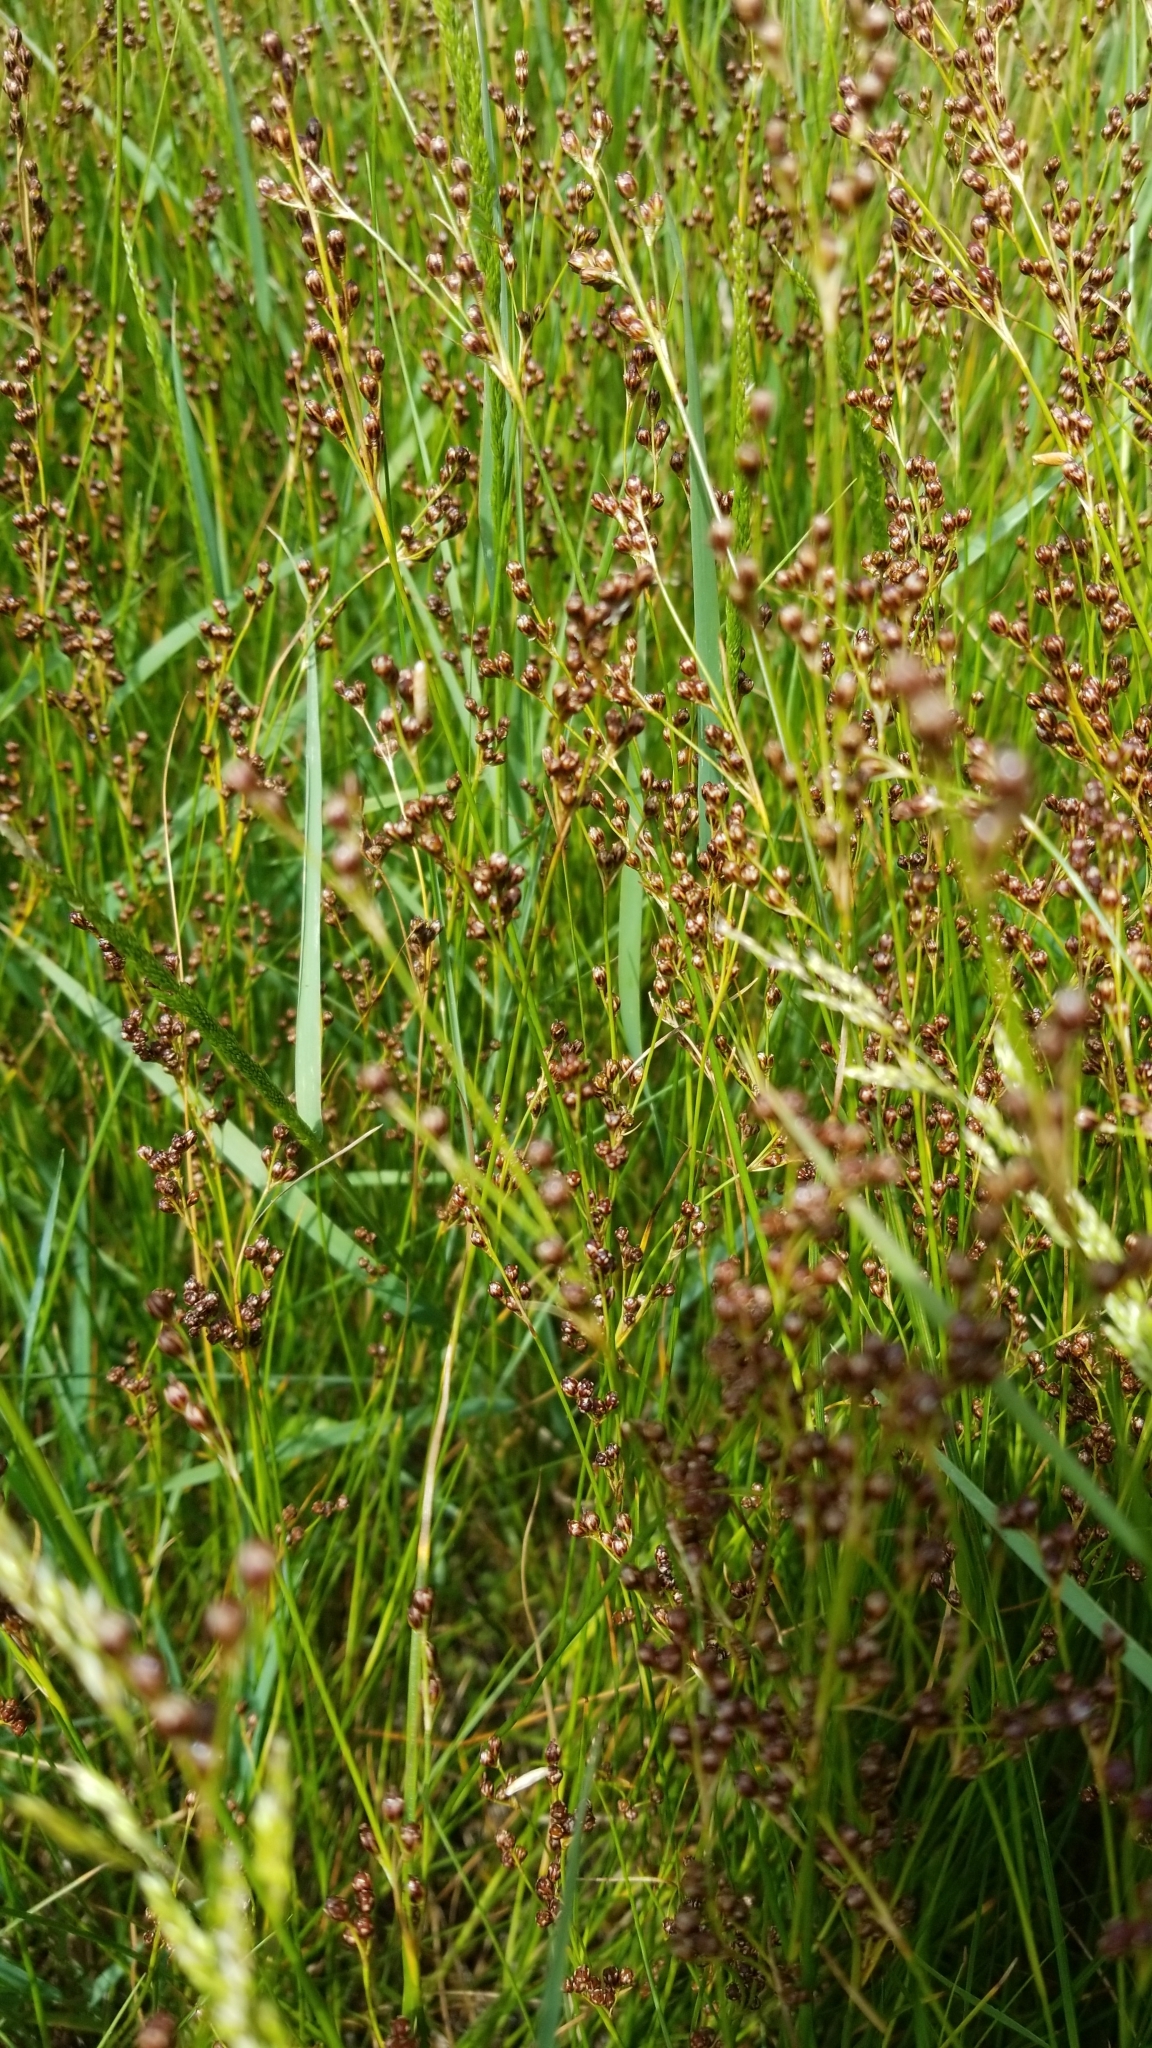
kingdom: Plantae
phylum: Tracheophyta
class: Liliopsida
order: Poales
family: Juncaceae
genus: Juncus
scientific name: Juncus gerardi
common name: Saltmarsh rush
